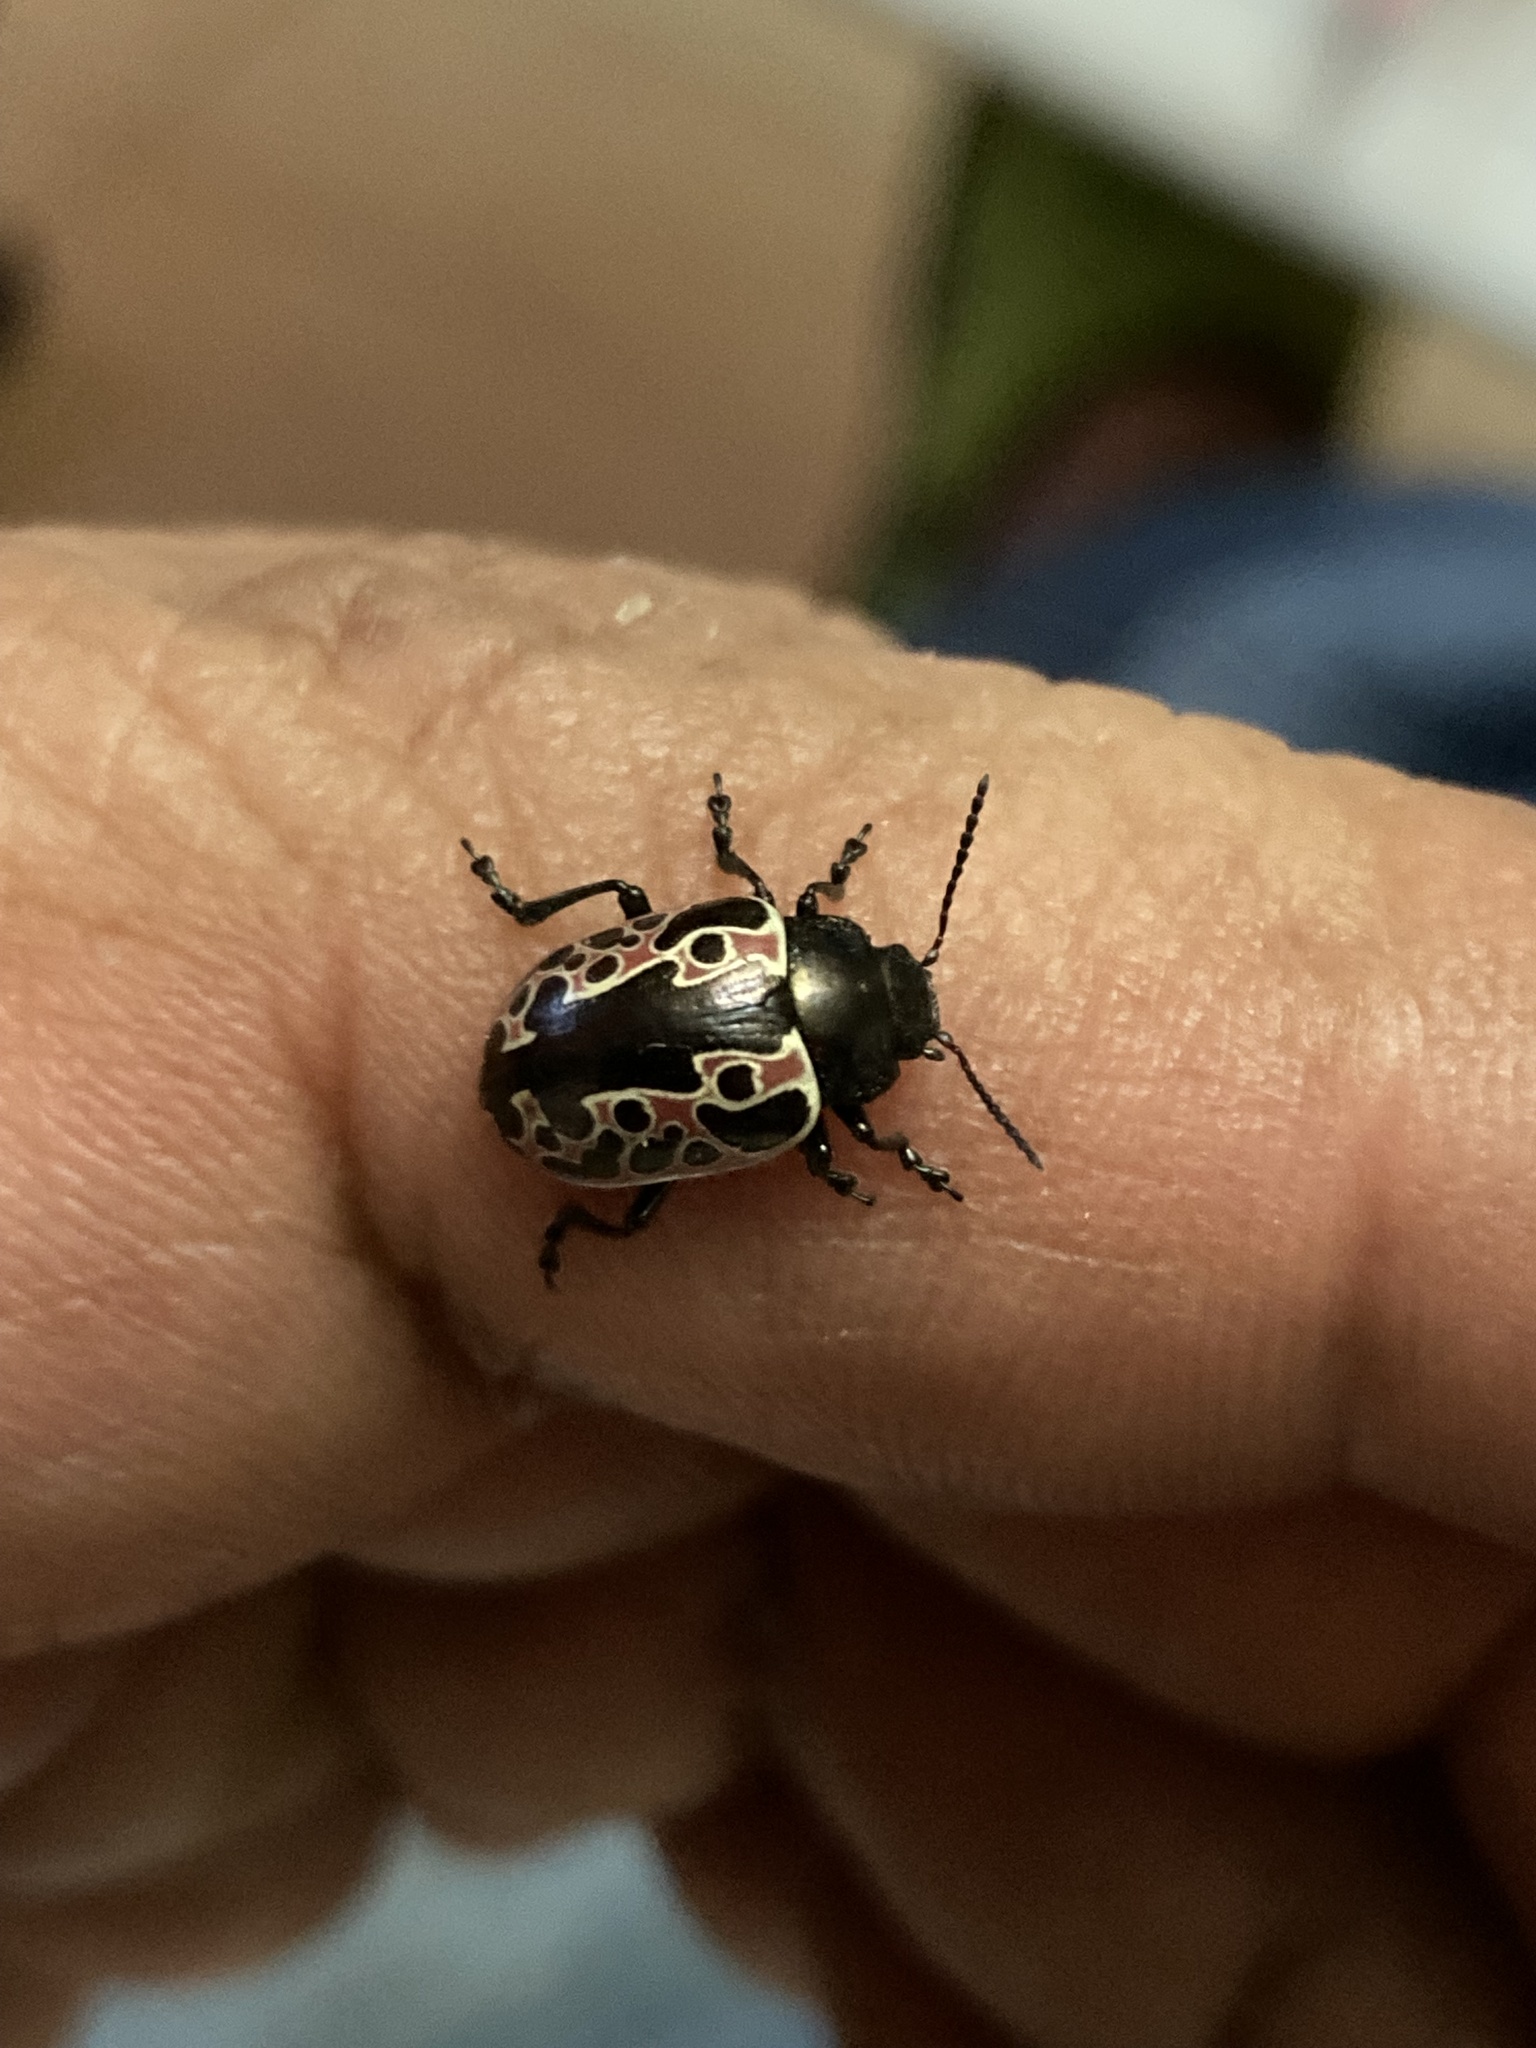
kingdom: Animalia
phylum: Arthropoda
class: Insecta
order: Coleoptera
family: Chrysomelidae
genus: Calligrapha
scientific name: Calligrapha diversa
